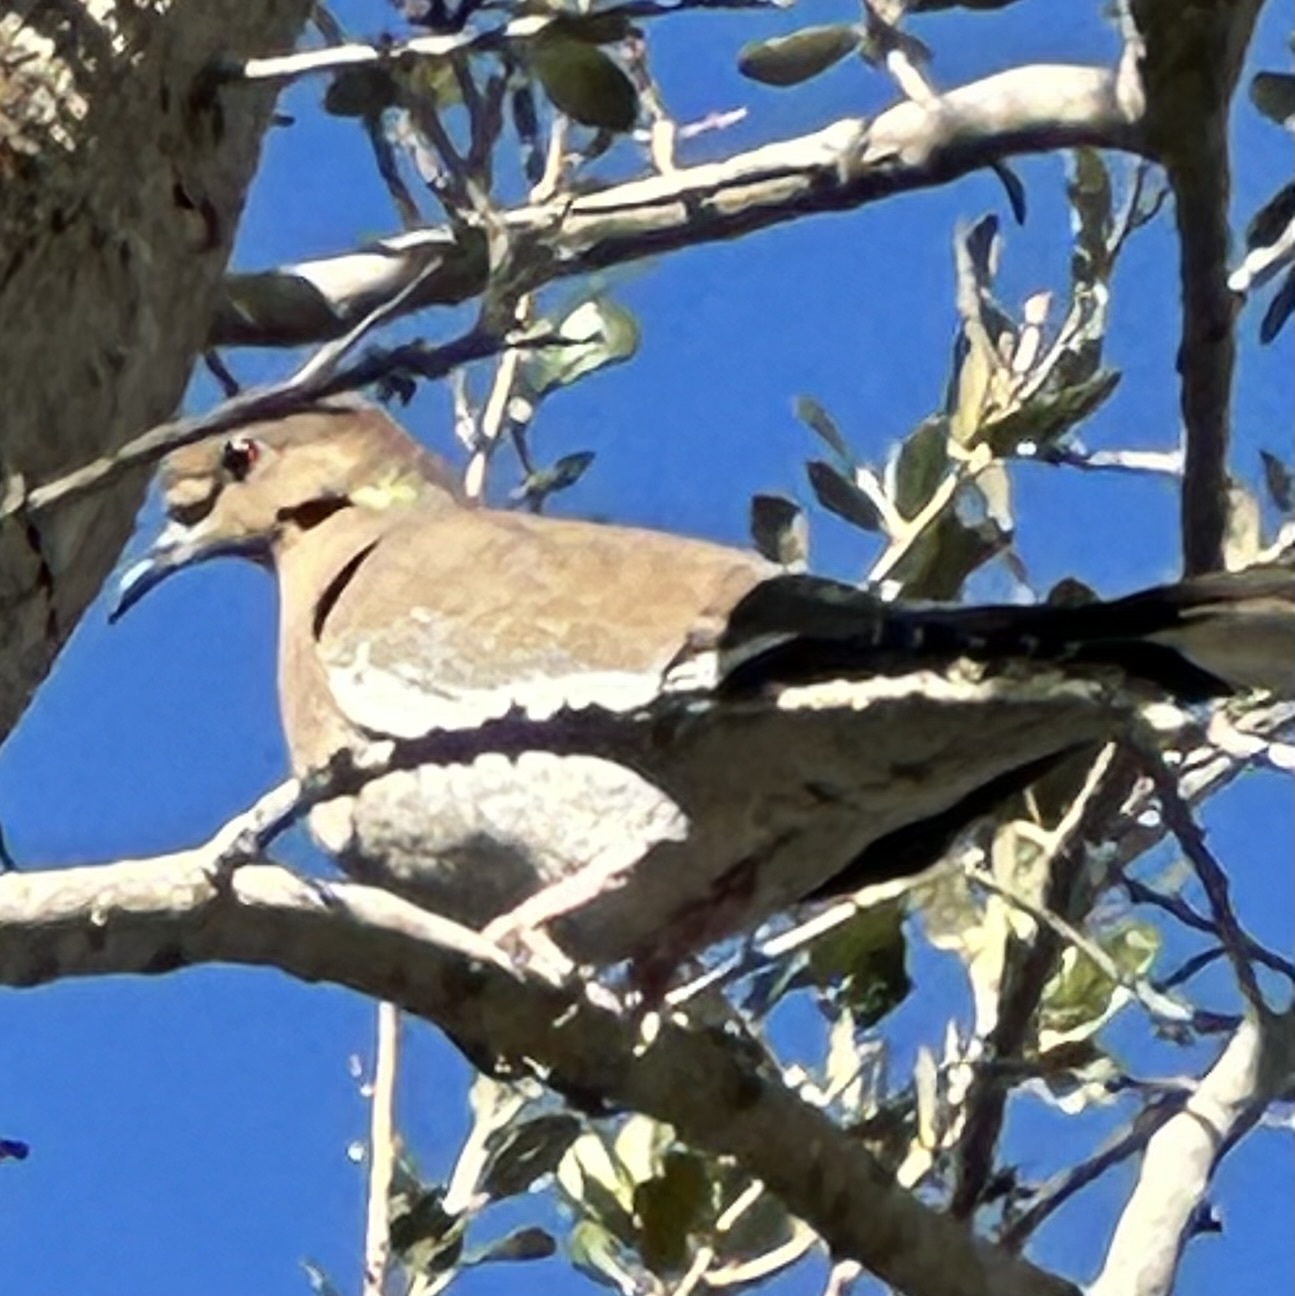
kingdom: Animalia
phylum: Chordata
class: Aves
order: Columbiformes
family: Columbidae
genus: Zenaida
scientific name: Zenaida asiatica
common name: White-winged dove
